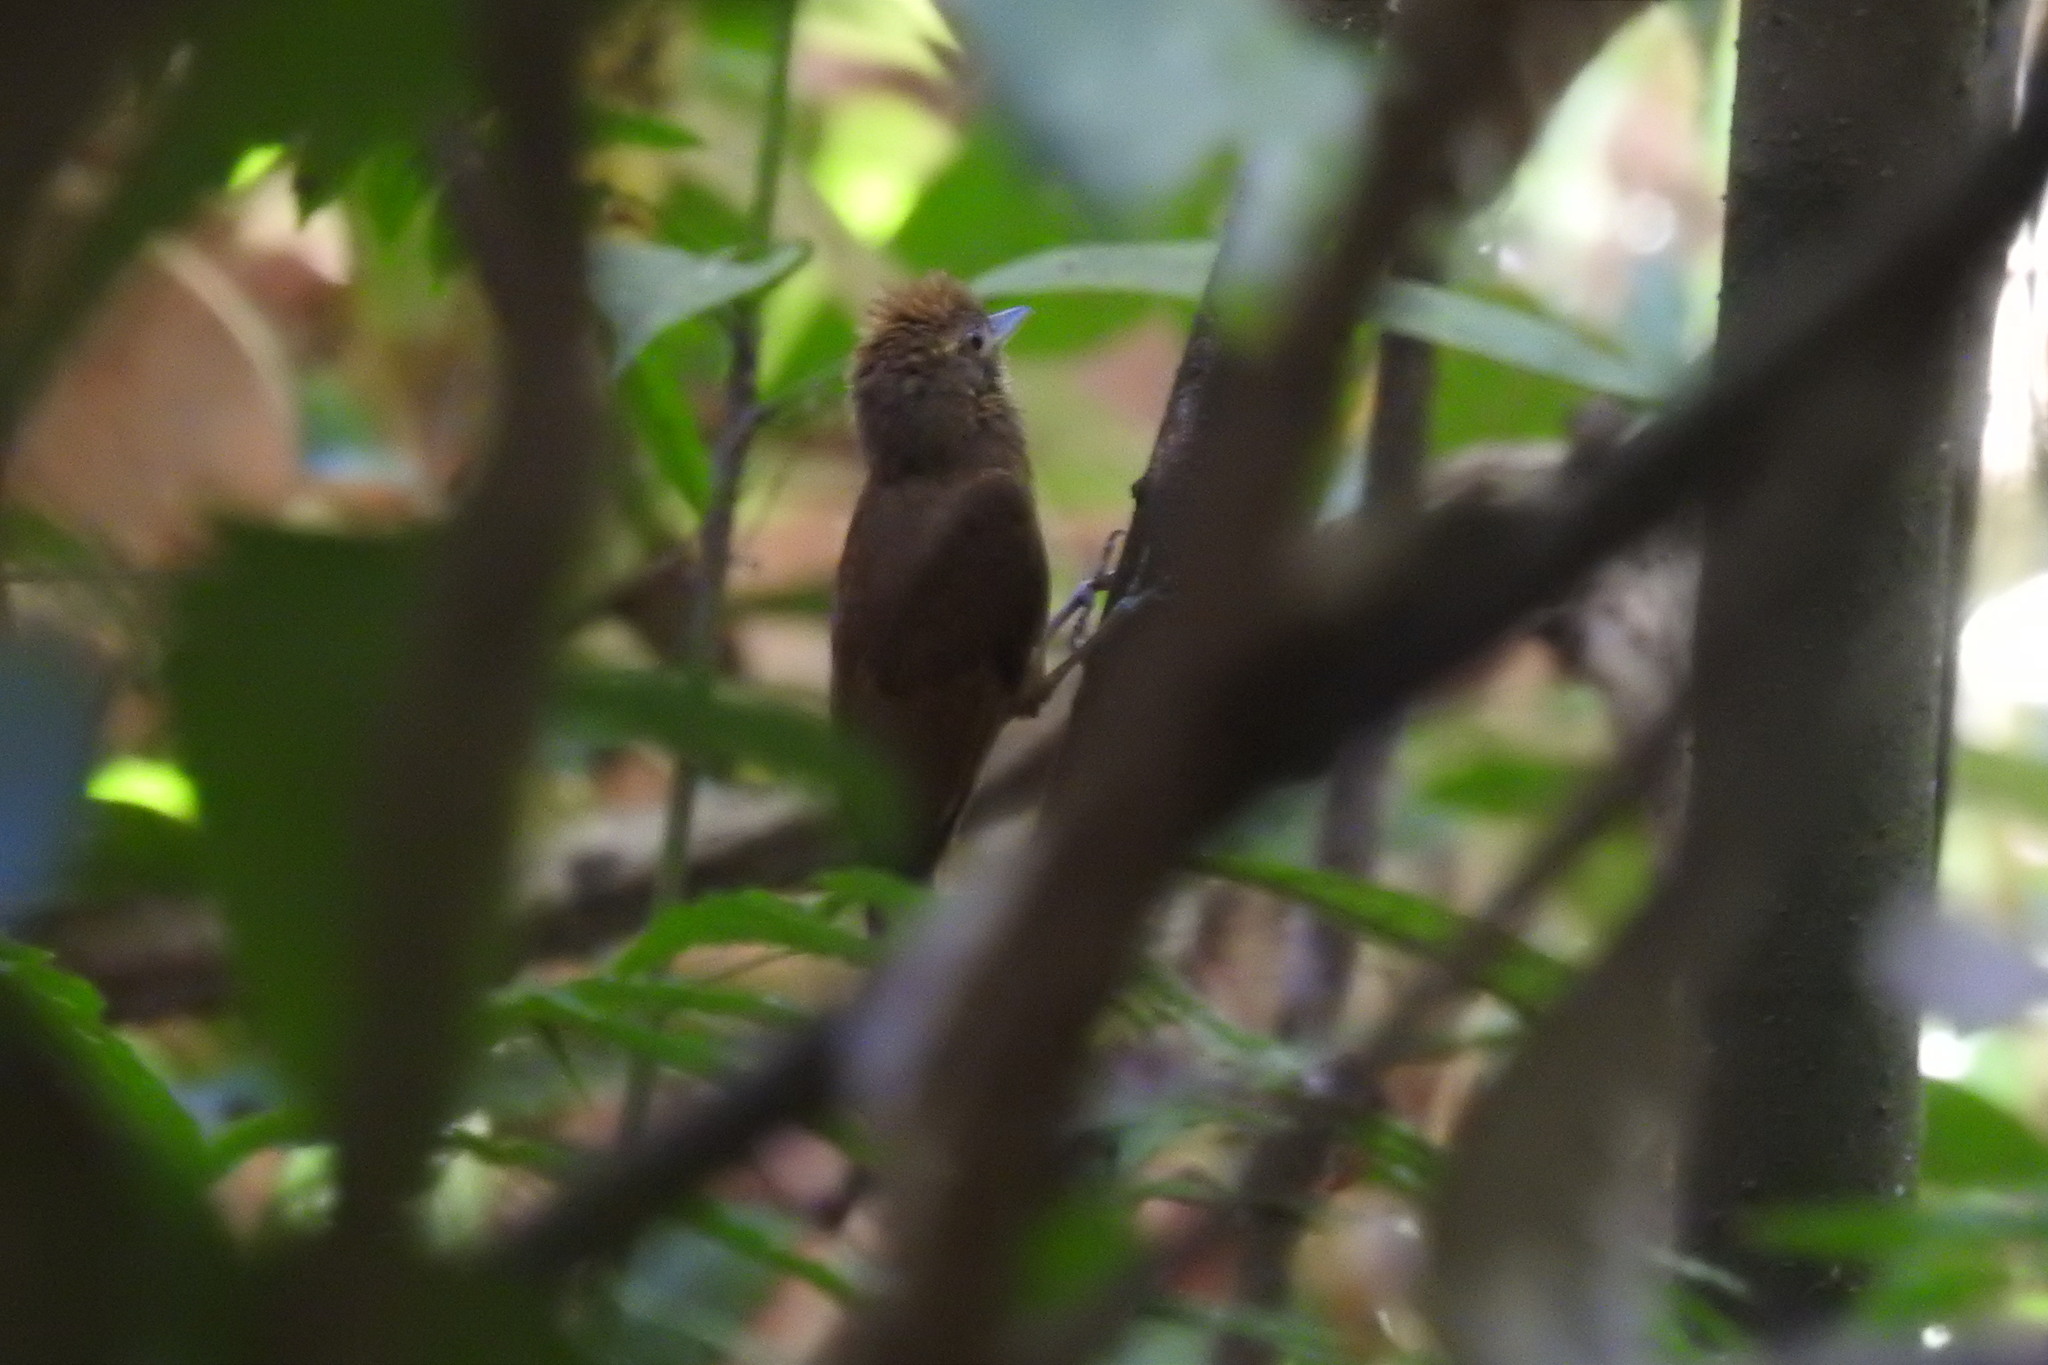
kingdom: Animalia
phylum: Chordata
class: Aves
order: Passeriformes
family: Furnariidae
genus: Dendrocincla
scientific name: Dendrocincla anabatina
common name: Tawny-winged woodcreeper
